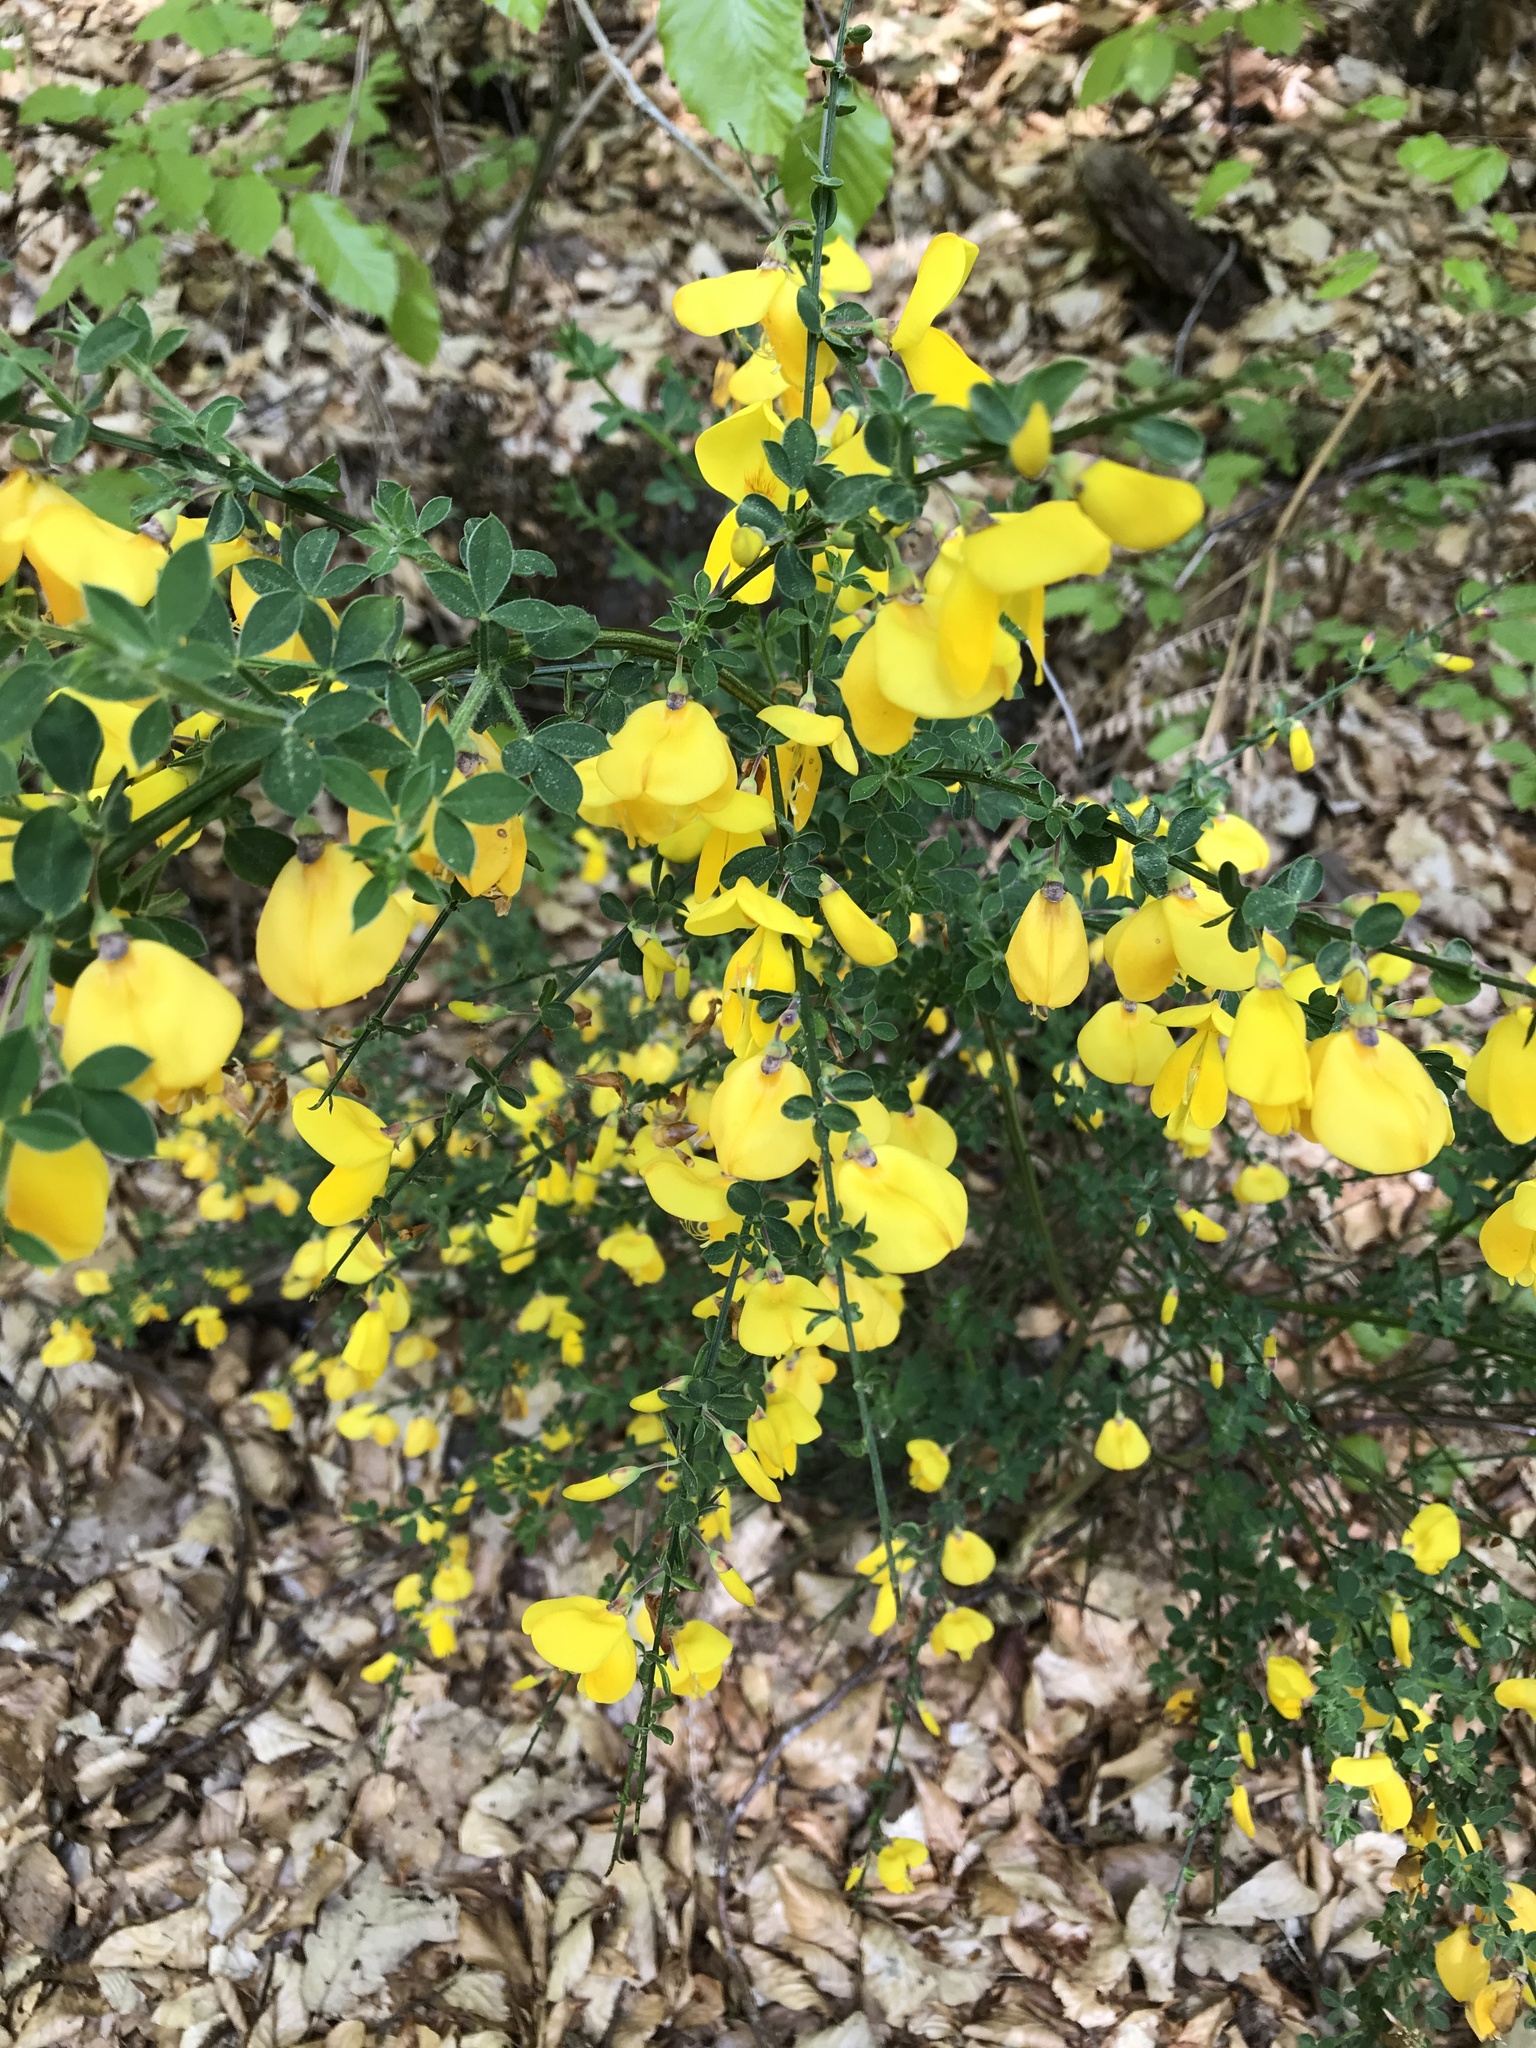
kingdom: Plantae
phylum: Tracheophyta
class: Magnoliopsida
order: Fabales
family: Fabaceae
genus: Cytisus
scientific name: Cytisus scoparius
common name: Scotch broom
